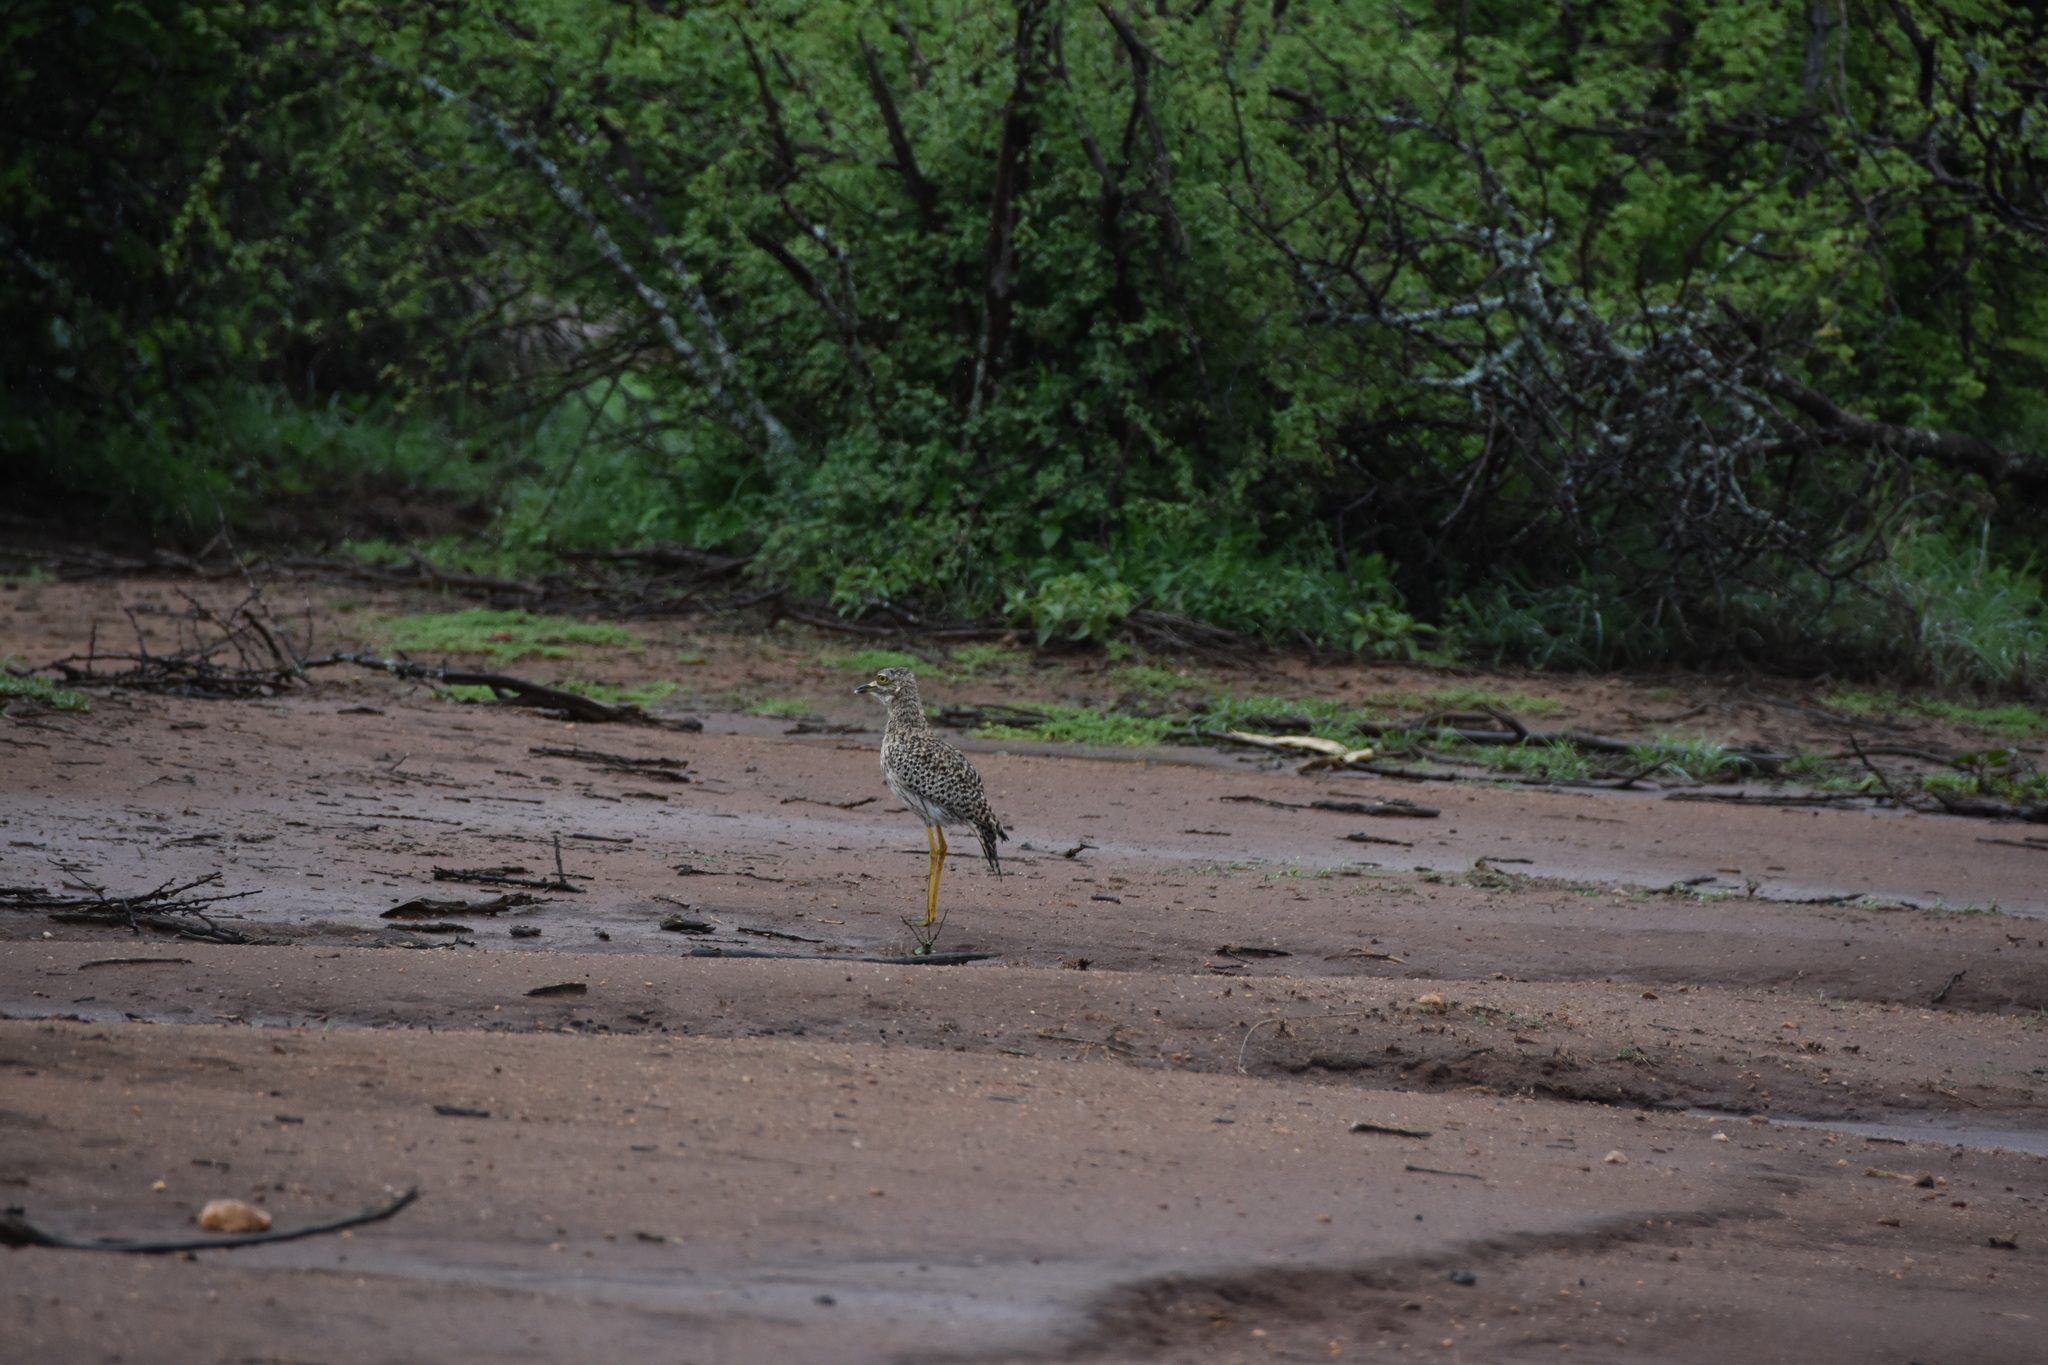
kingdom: Animalia
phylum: Chordata
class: Aves
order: Charadriiformes
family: Burhinidae
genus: Burhinus
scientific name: Burhinus capensis
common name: Spotted thick-knee
